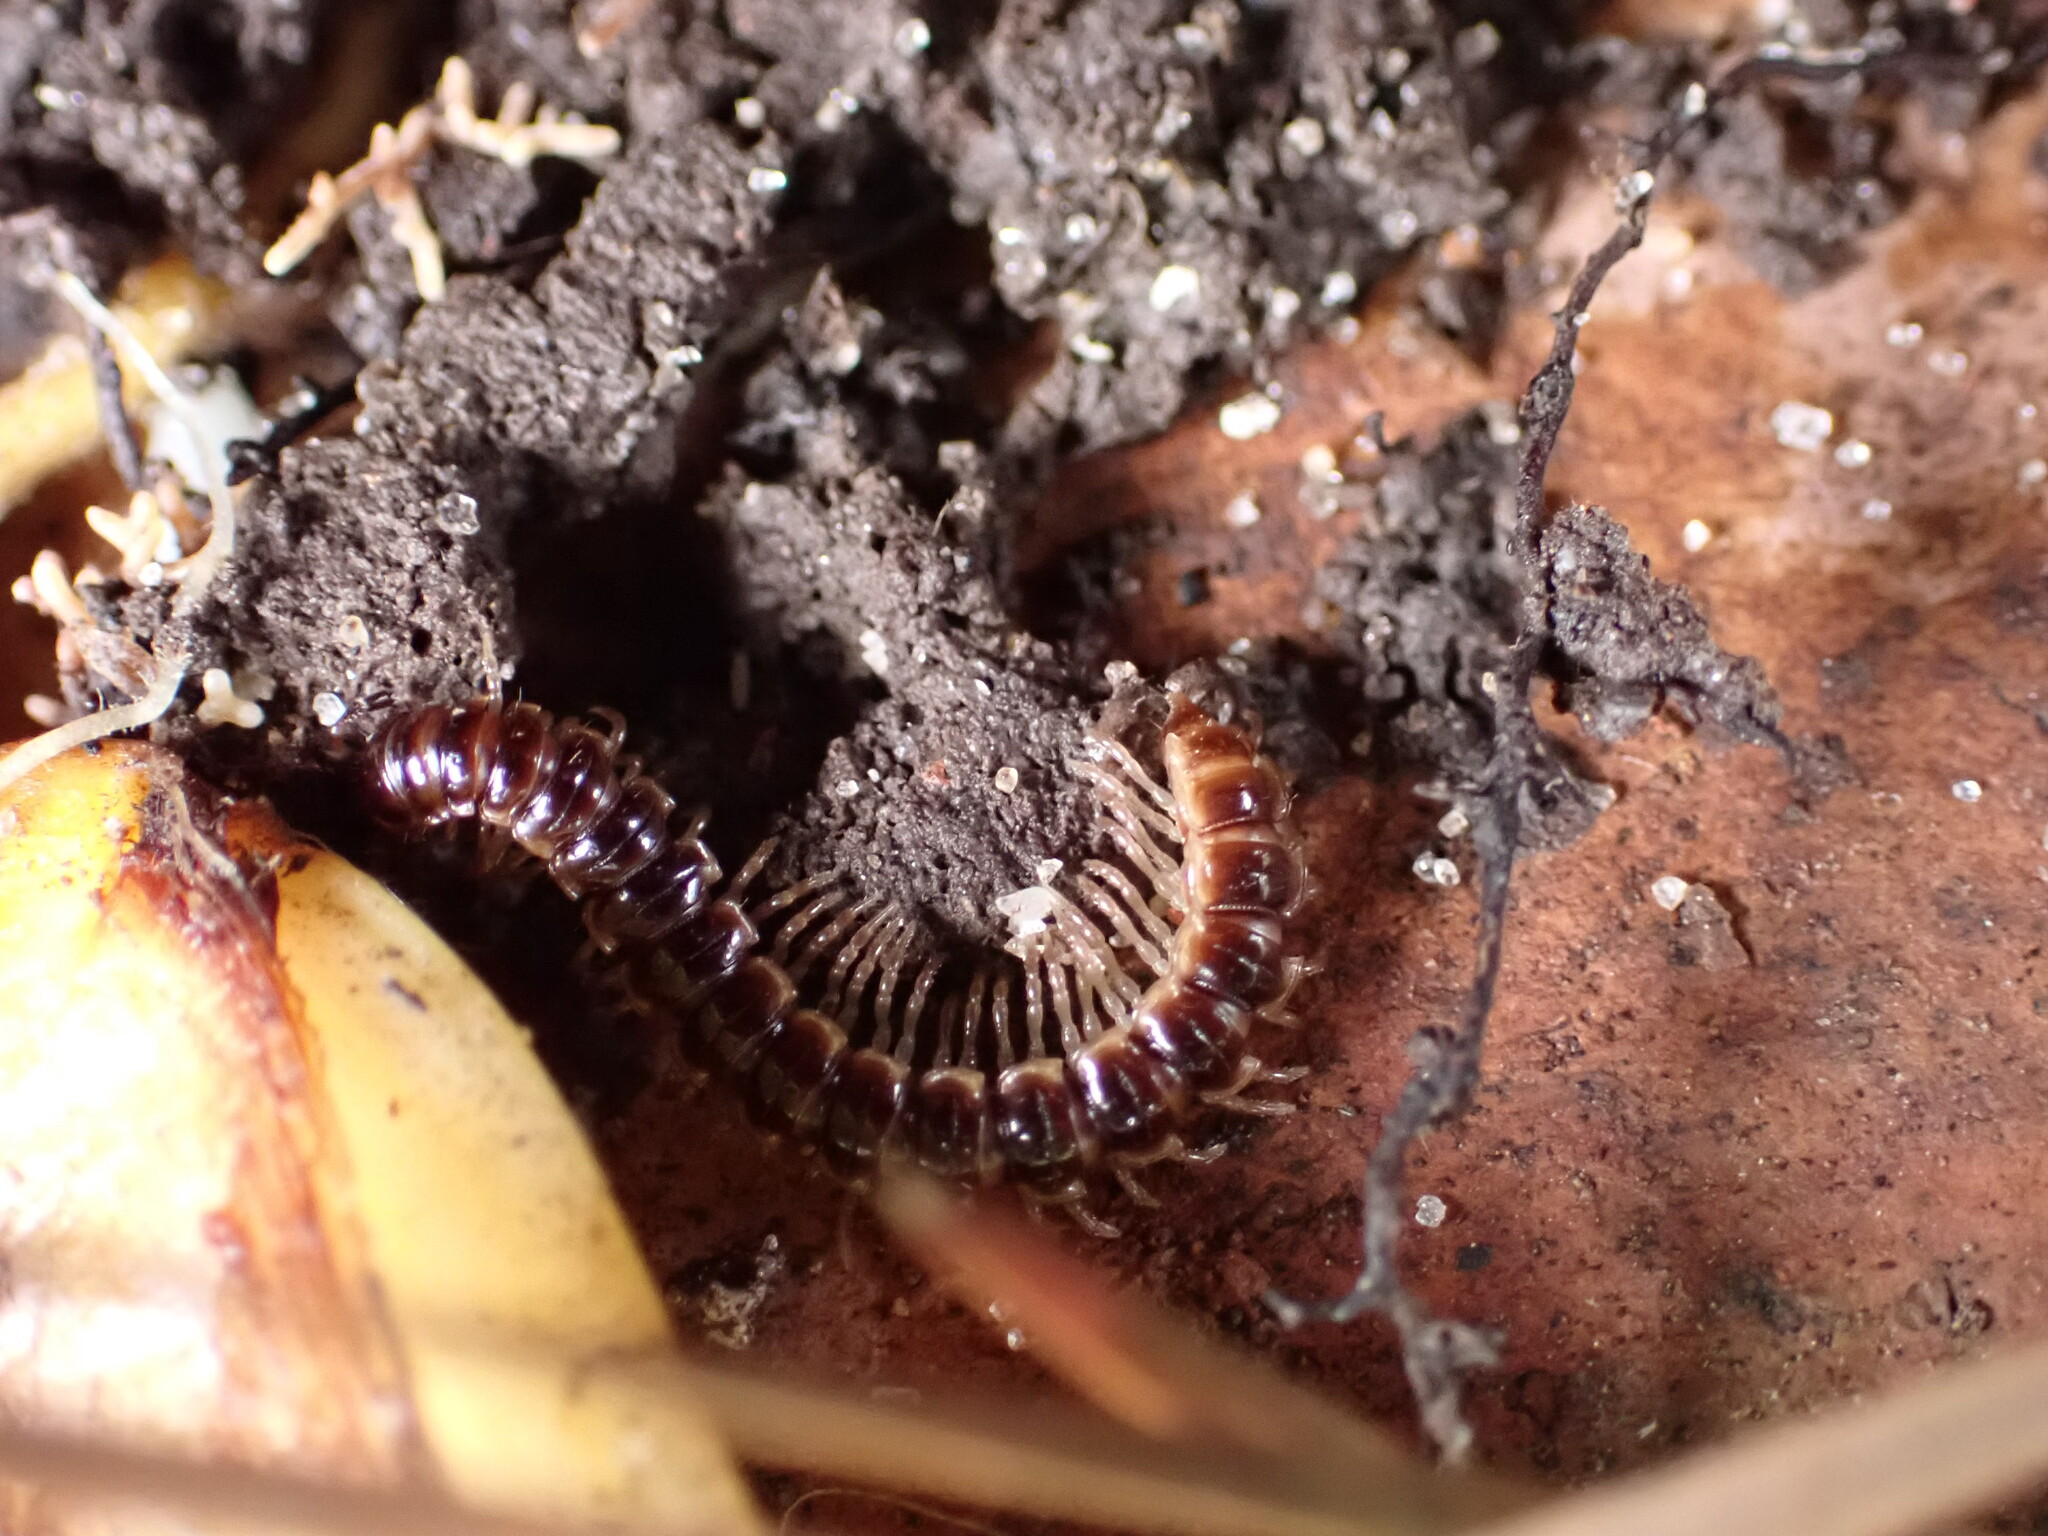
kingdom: Animalia
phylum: Arthropoda
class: Diplopoda
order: Polydesmida
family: Paradoxosomatidae
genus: Oxidus
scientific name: Oxidus gracilis
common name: Greenhouse millipede
